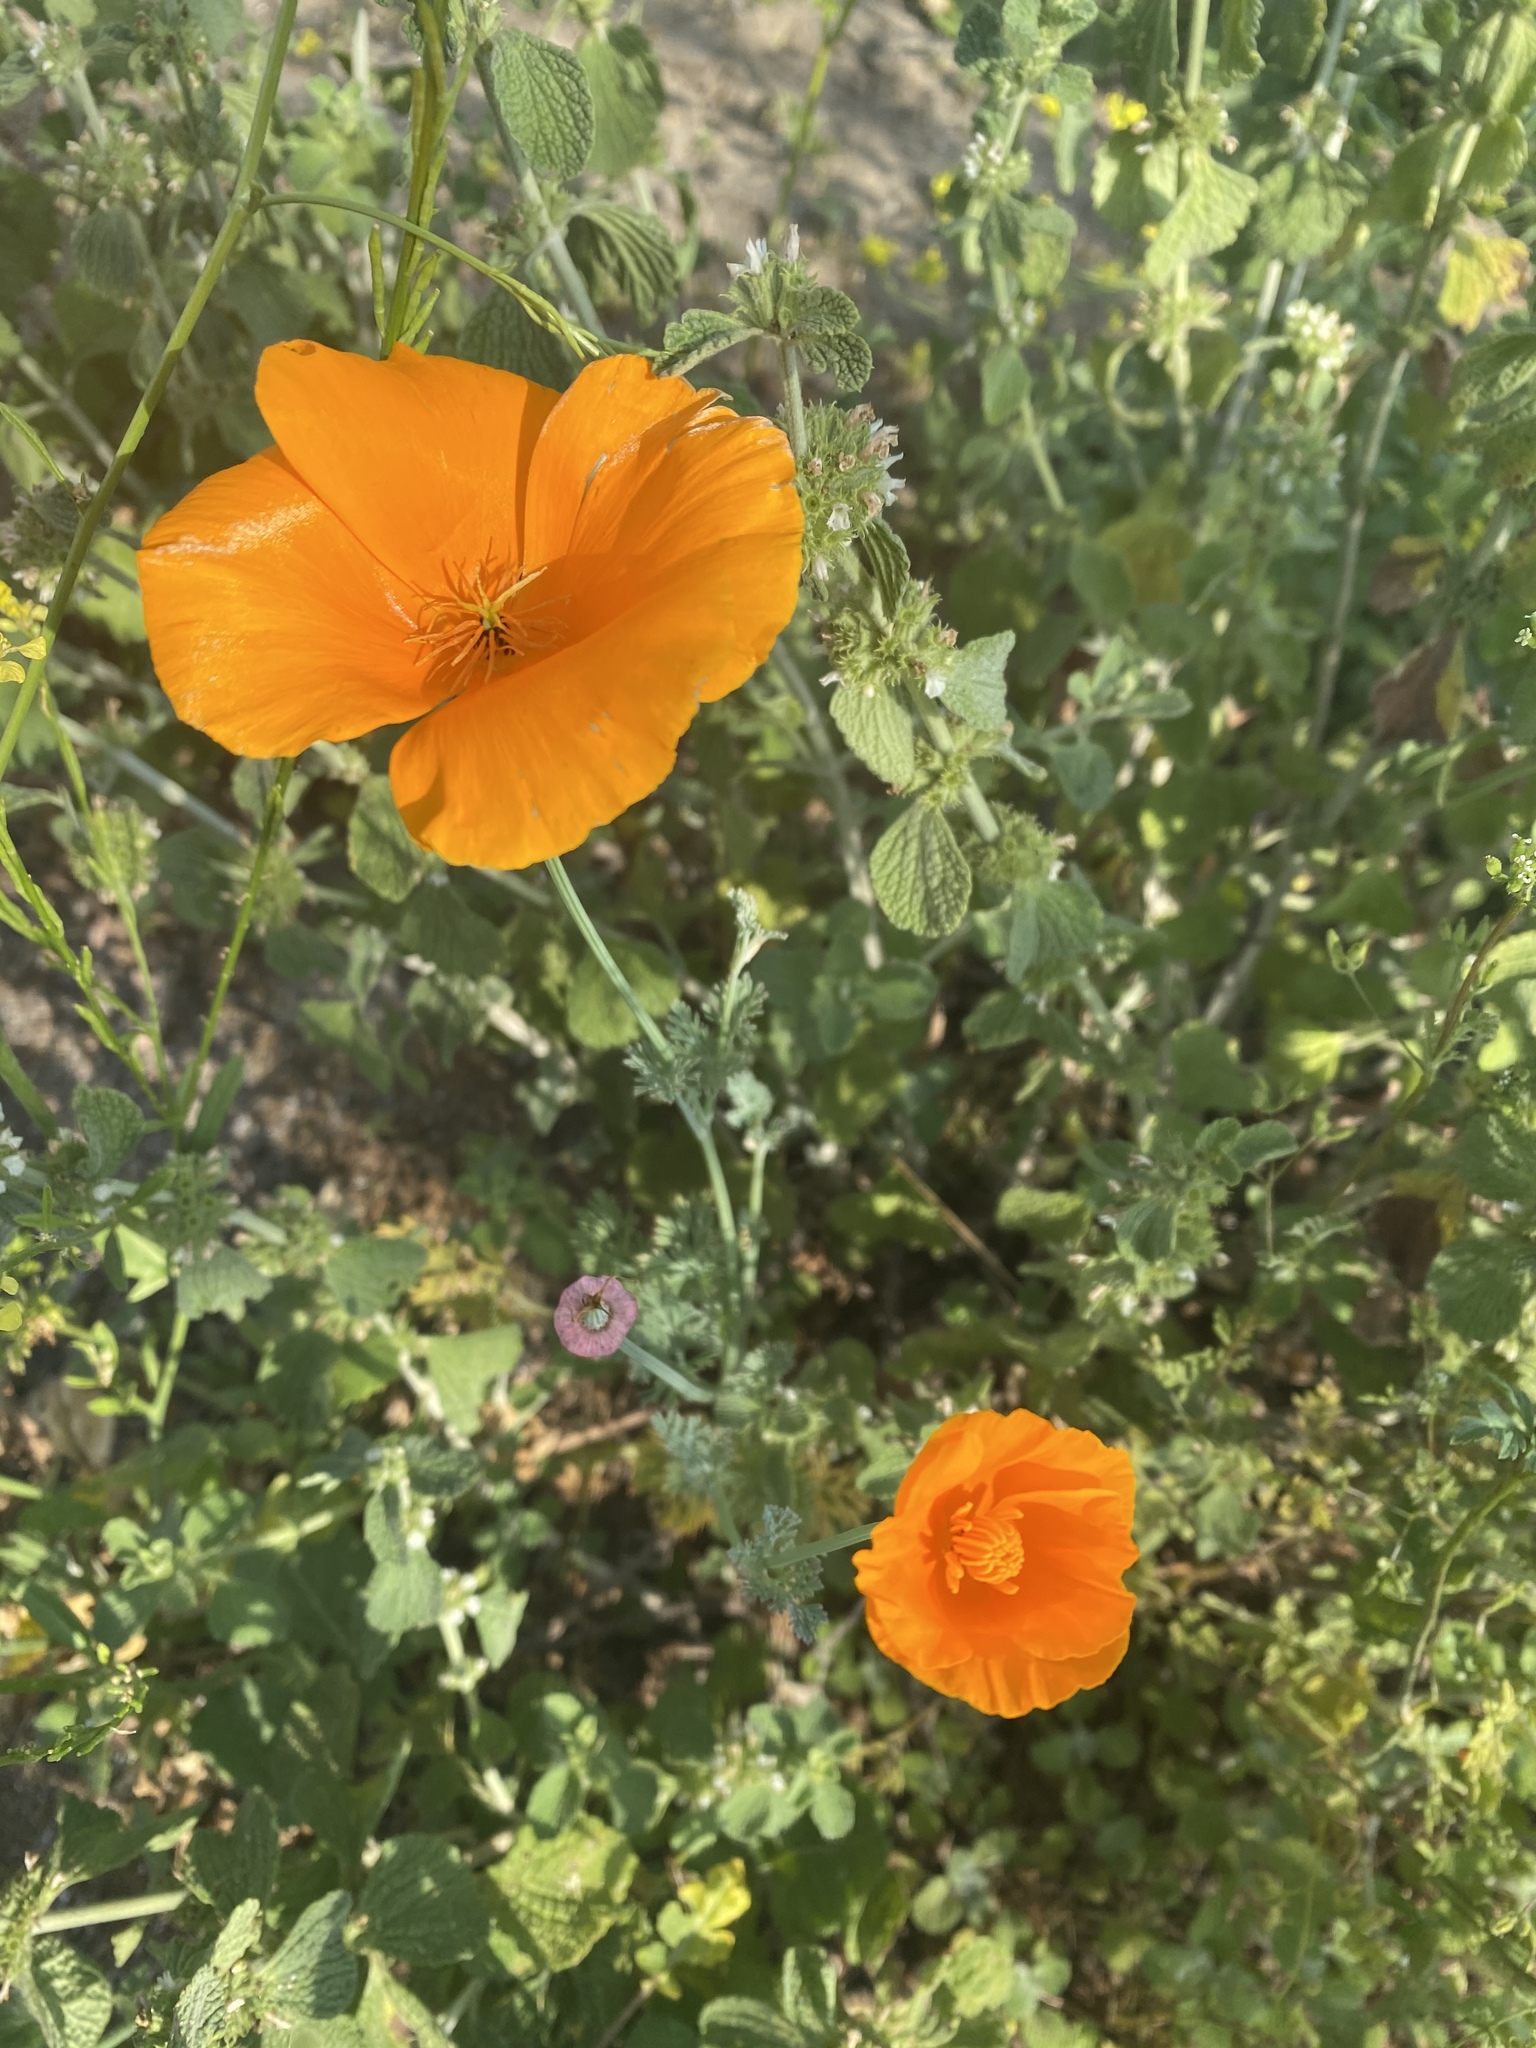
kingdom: Plantae
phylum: Tracheophyta
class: Magnoliopsida
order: Ranunculales
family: Papaveraceae
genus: Eschscholzia
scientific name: Eschscholzia californica
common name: California poppy
